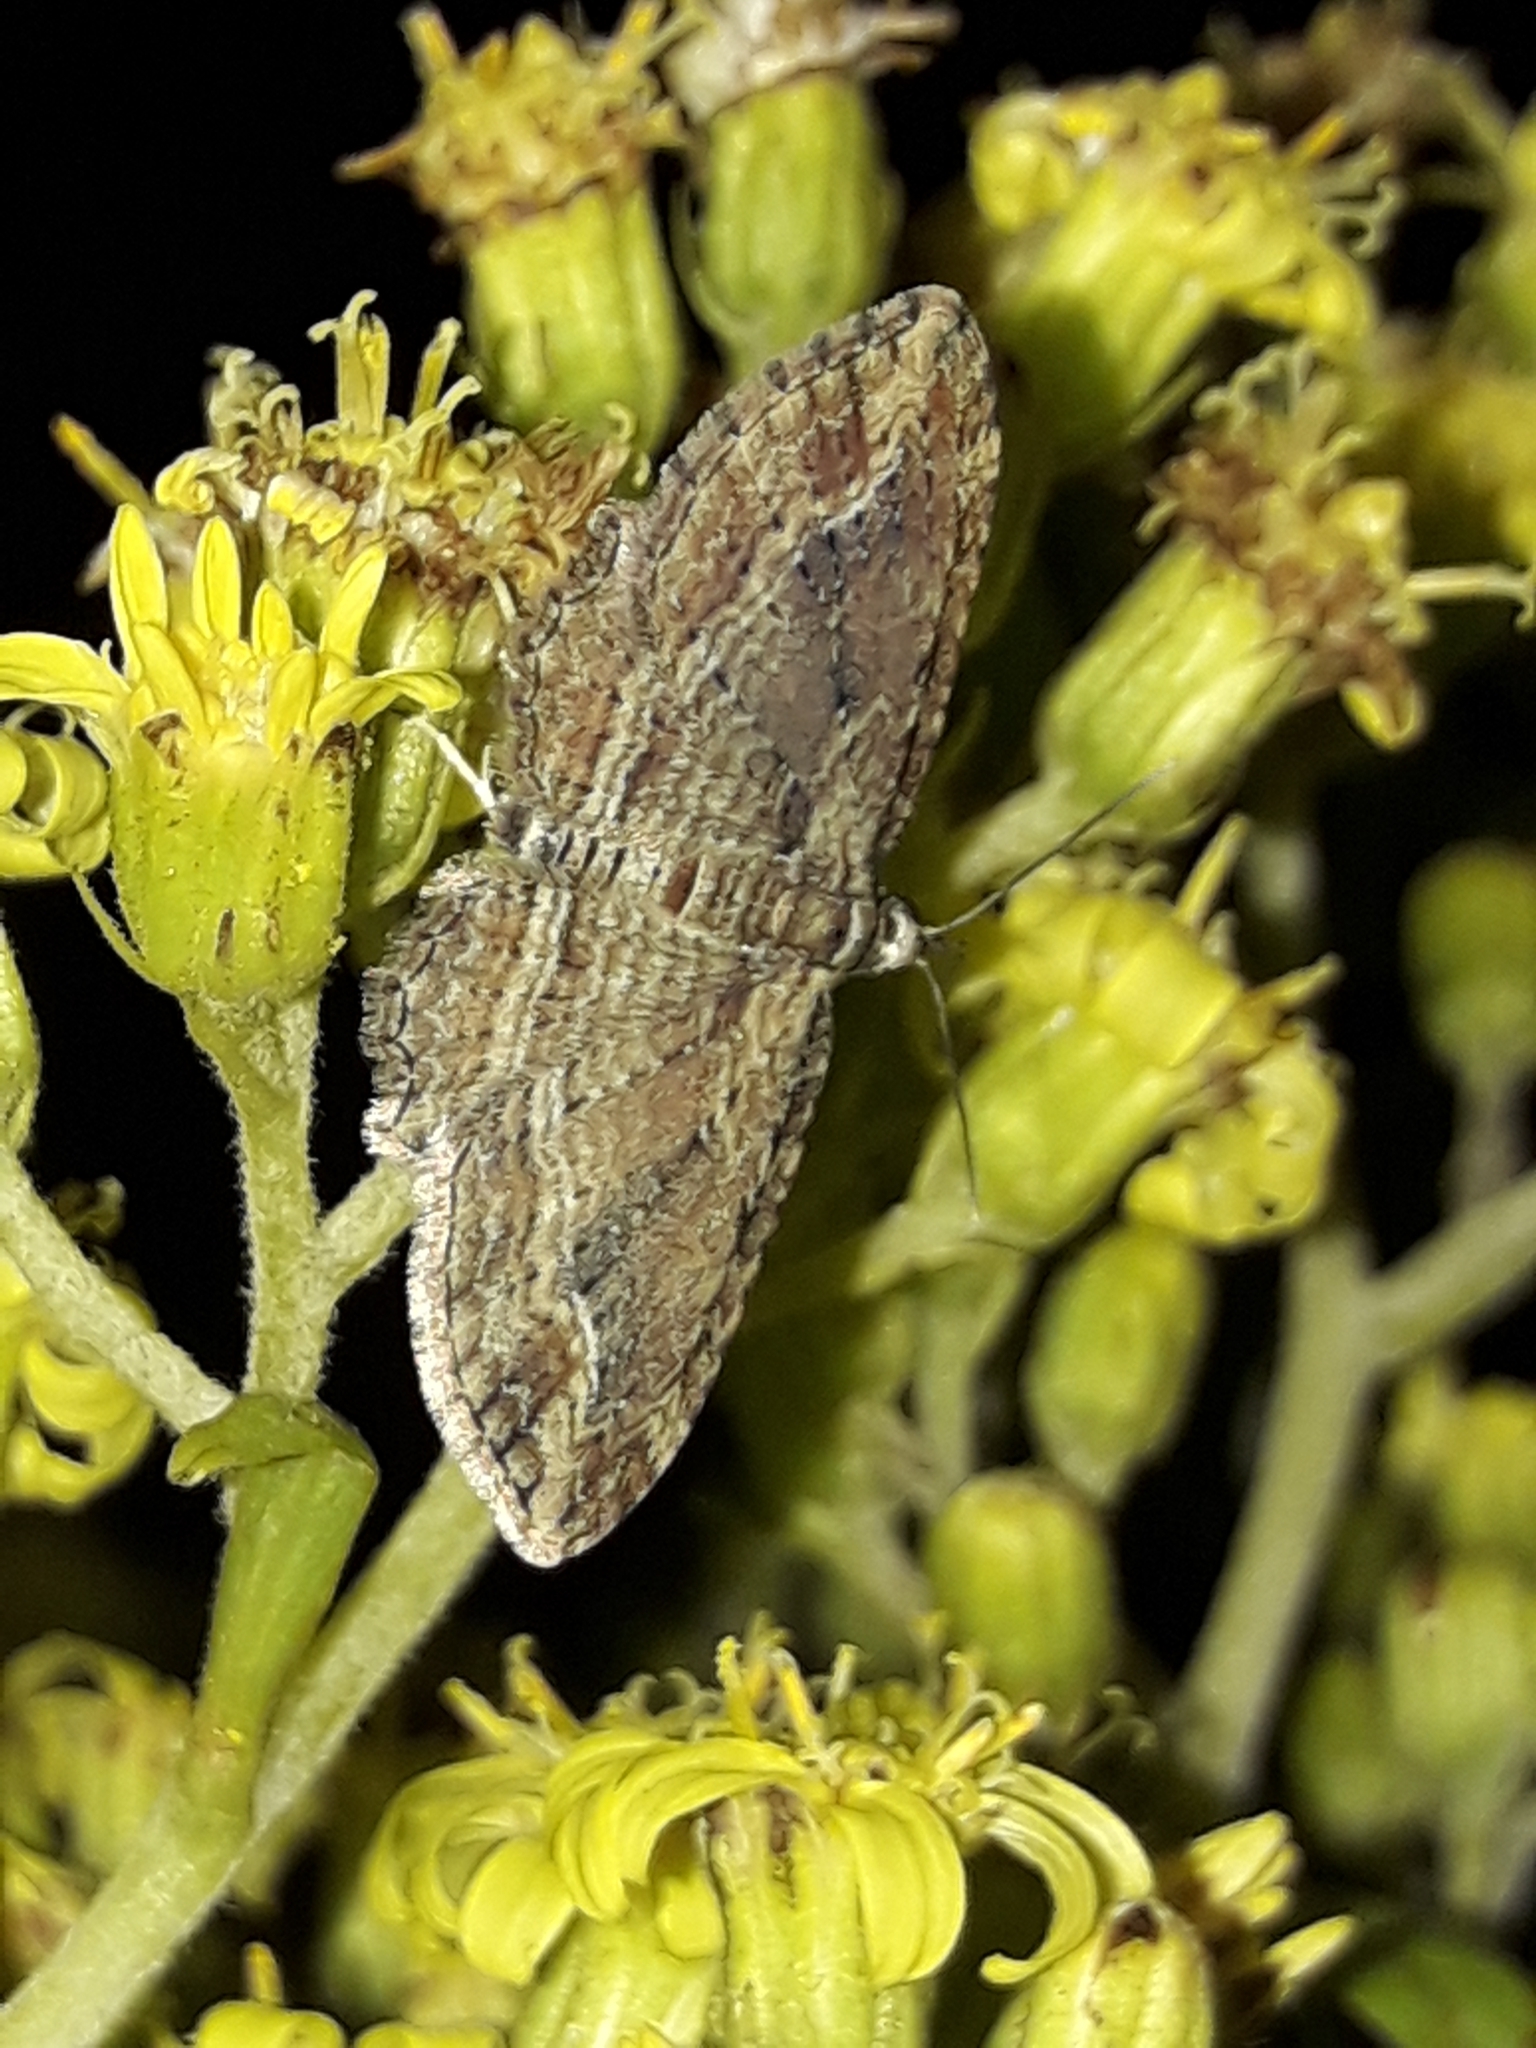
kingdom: Animalia
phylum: Arthropoda
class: Insecta
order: Lepidoptera
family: Geometridae
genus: Chloroclystis
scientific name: Chloroclystis filata
